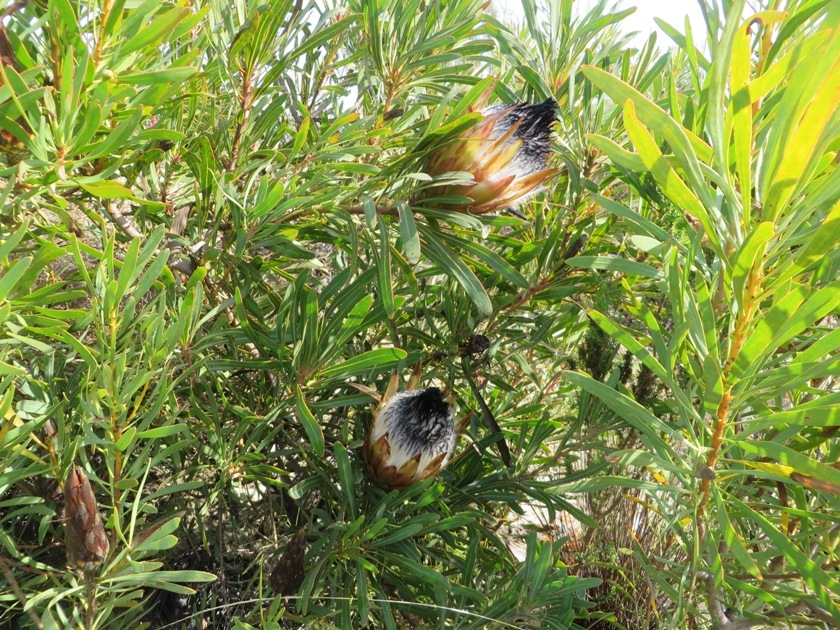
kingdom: Plantae
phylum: Tracheophyta
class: Magnoliopsida
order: Proteales
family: Proteaceae
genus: Protea
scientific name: Protea longifolia
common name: Long-leaf sugarbush
